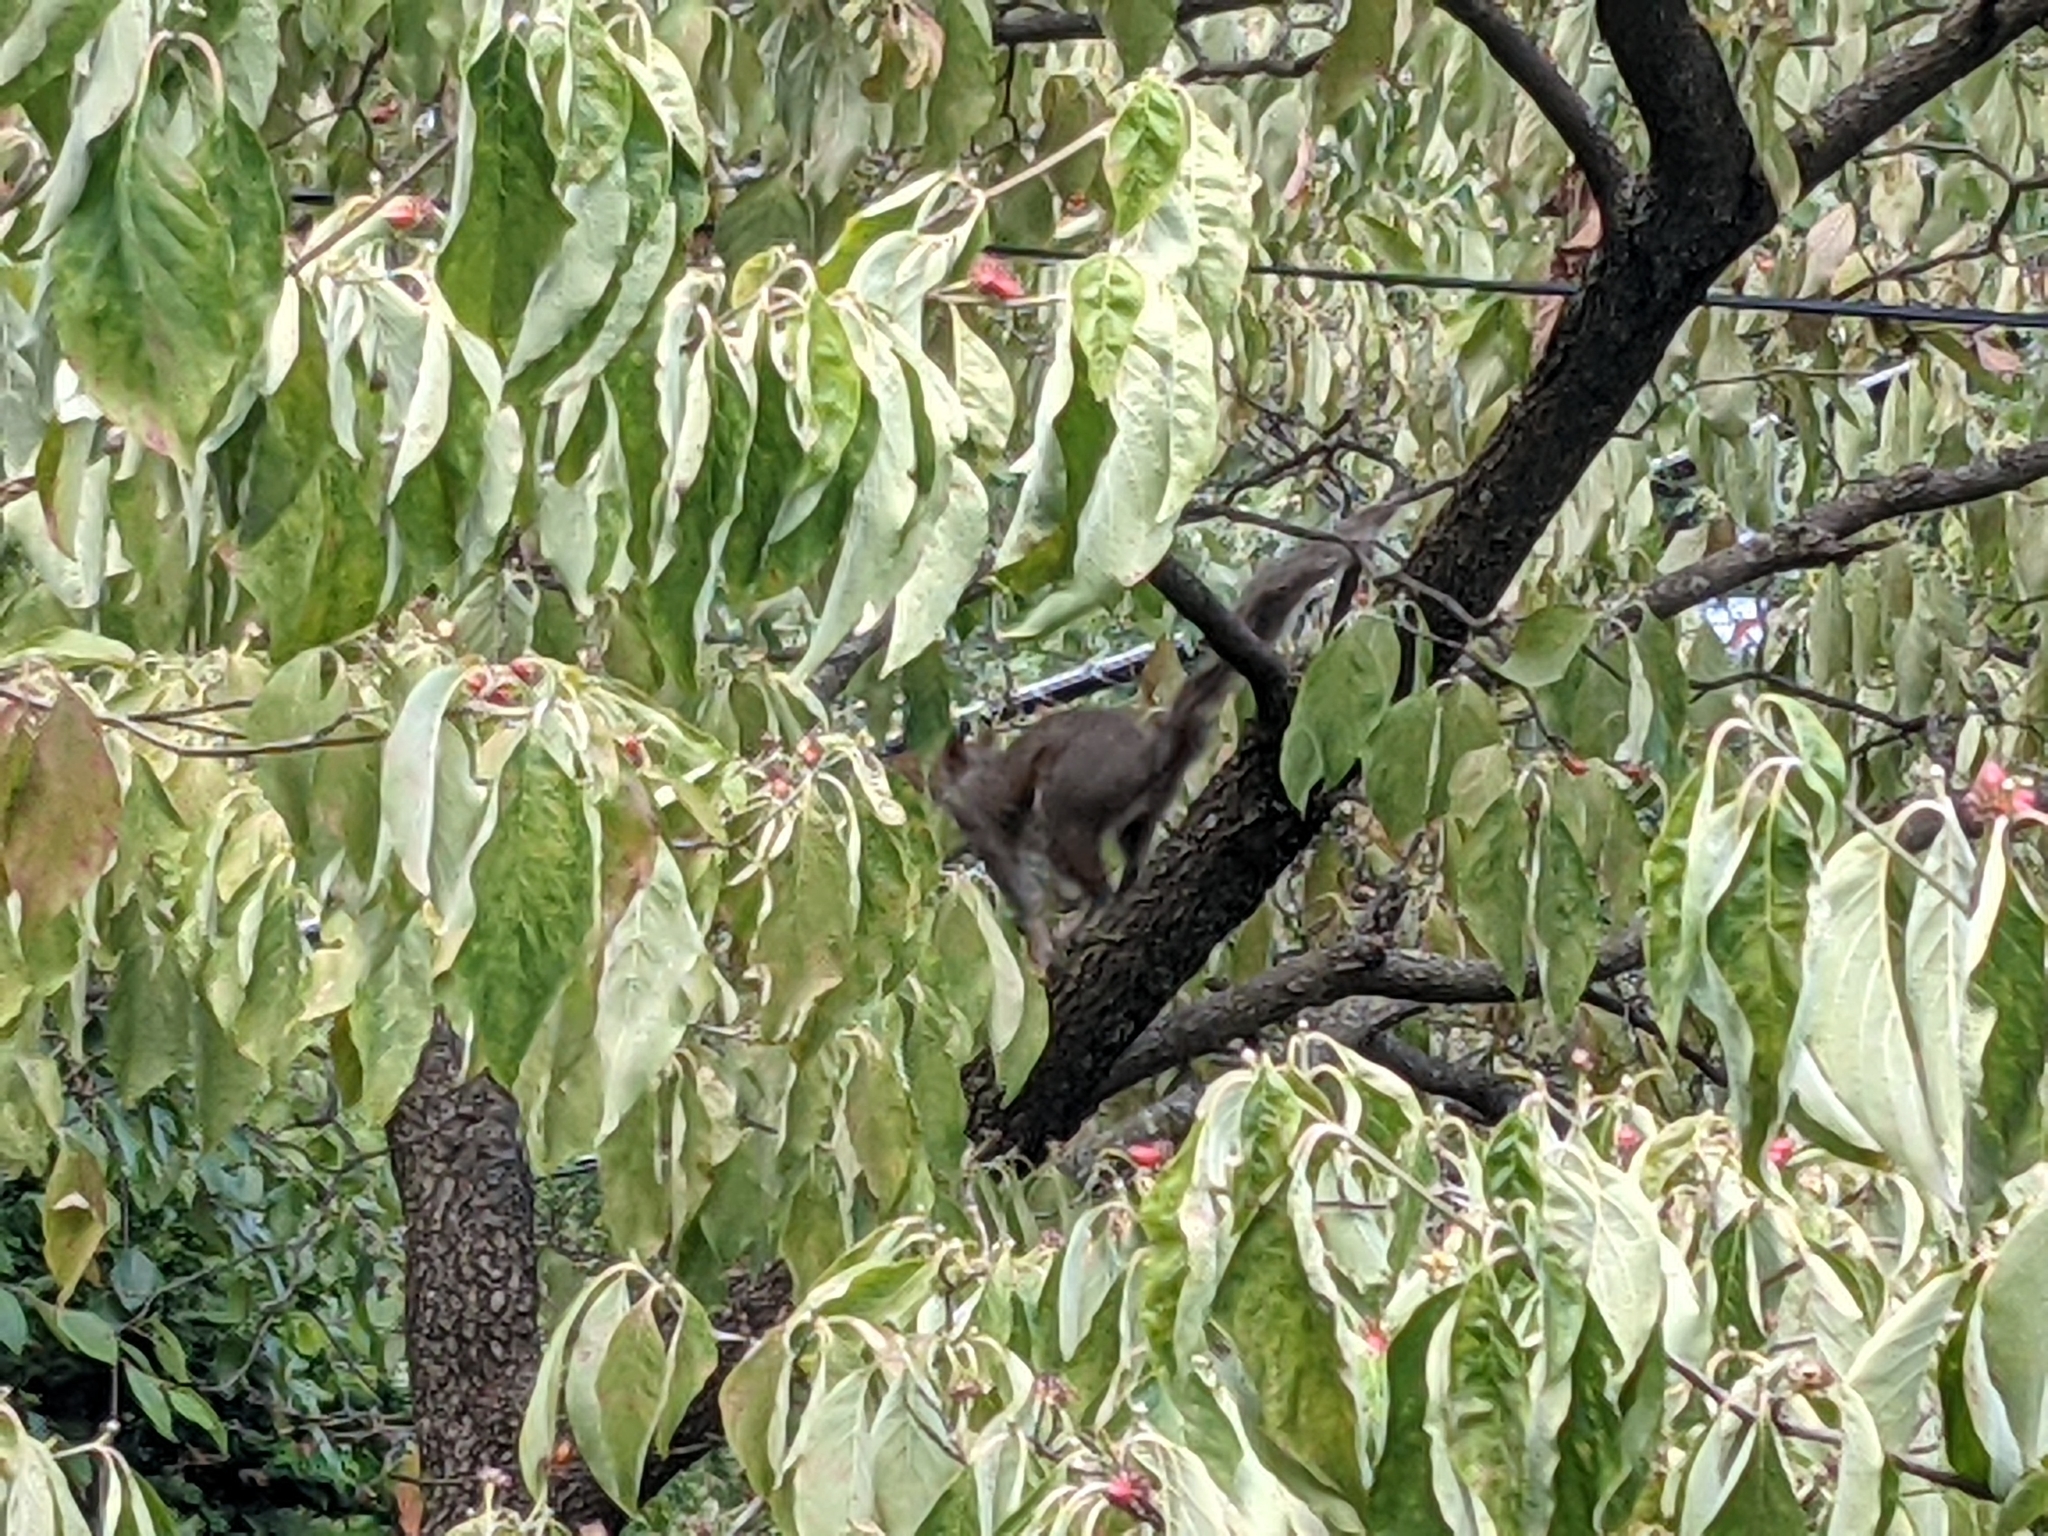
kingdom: Animalia
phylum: Chordata
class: Mammalia
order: Rodentia
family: Sciuridae
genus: Sciurus
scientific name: Sciurus carolinensis
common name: Eastern gray squirrel
